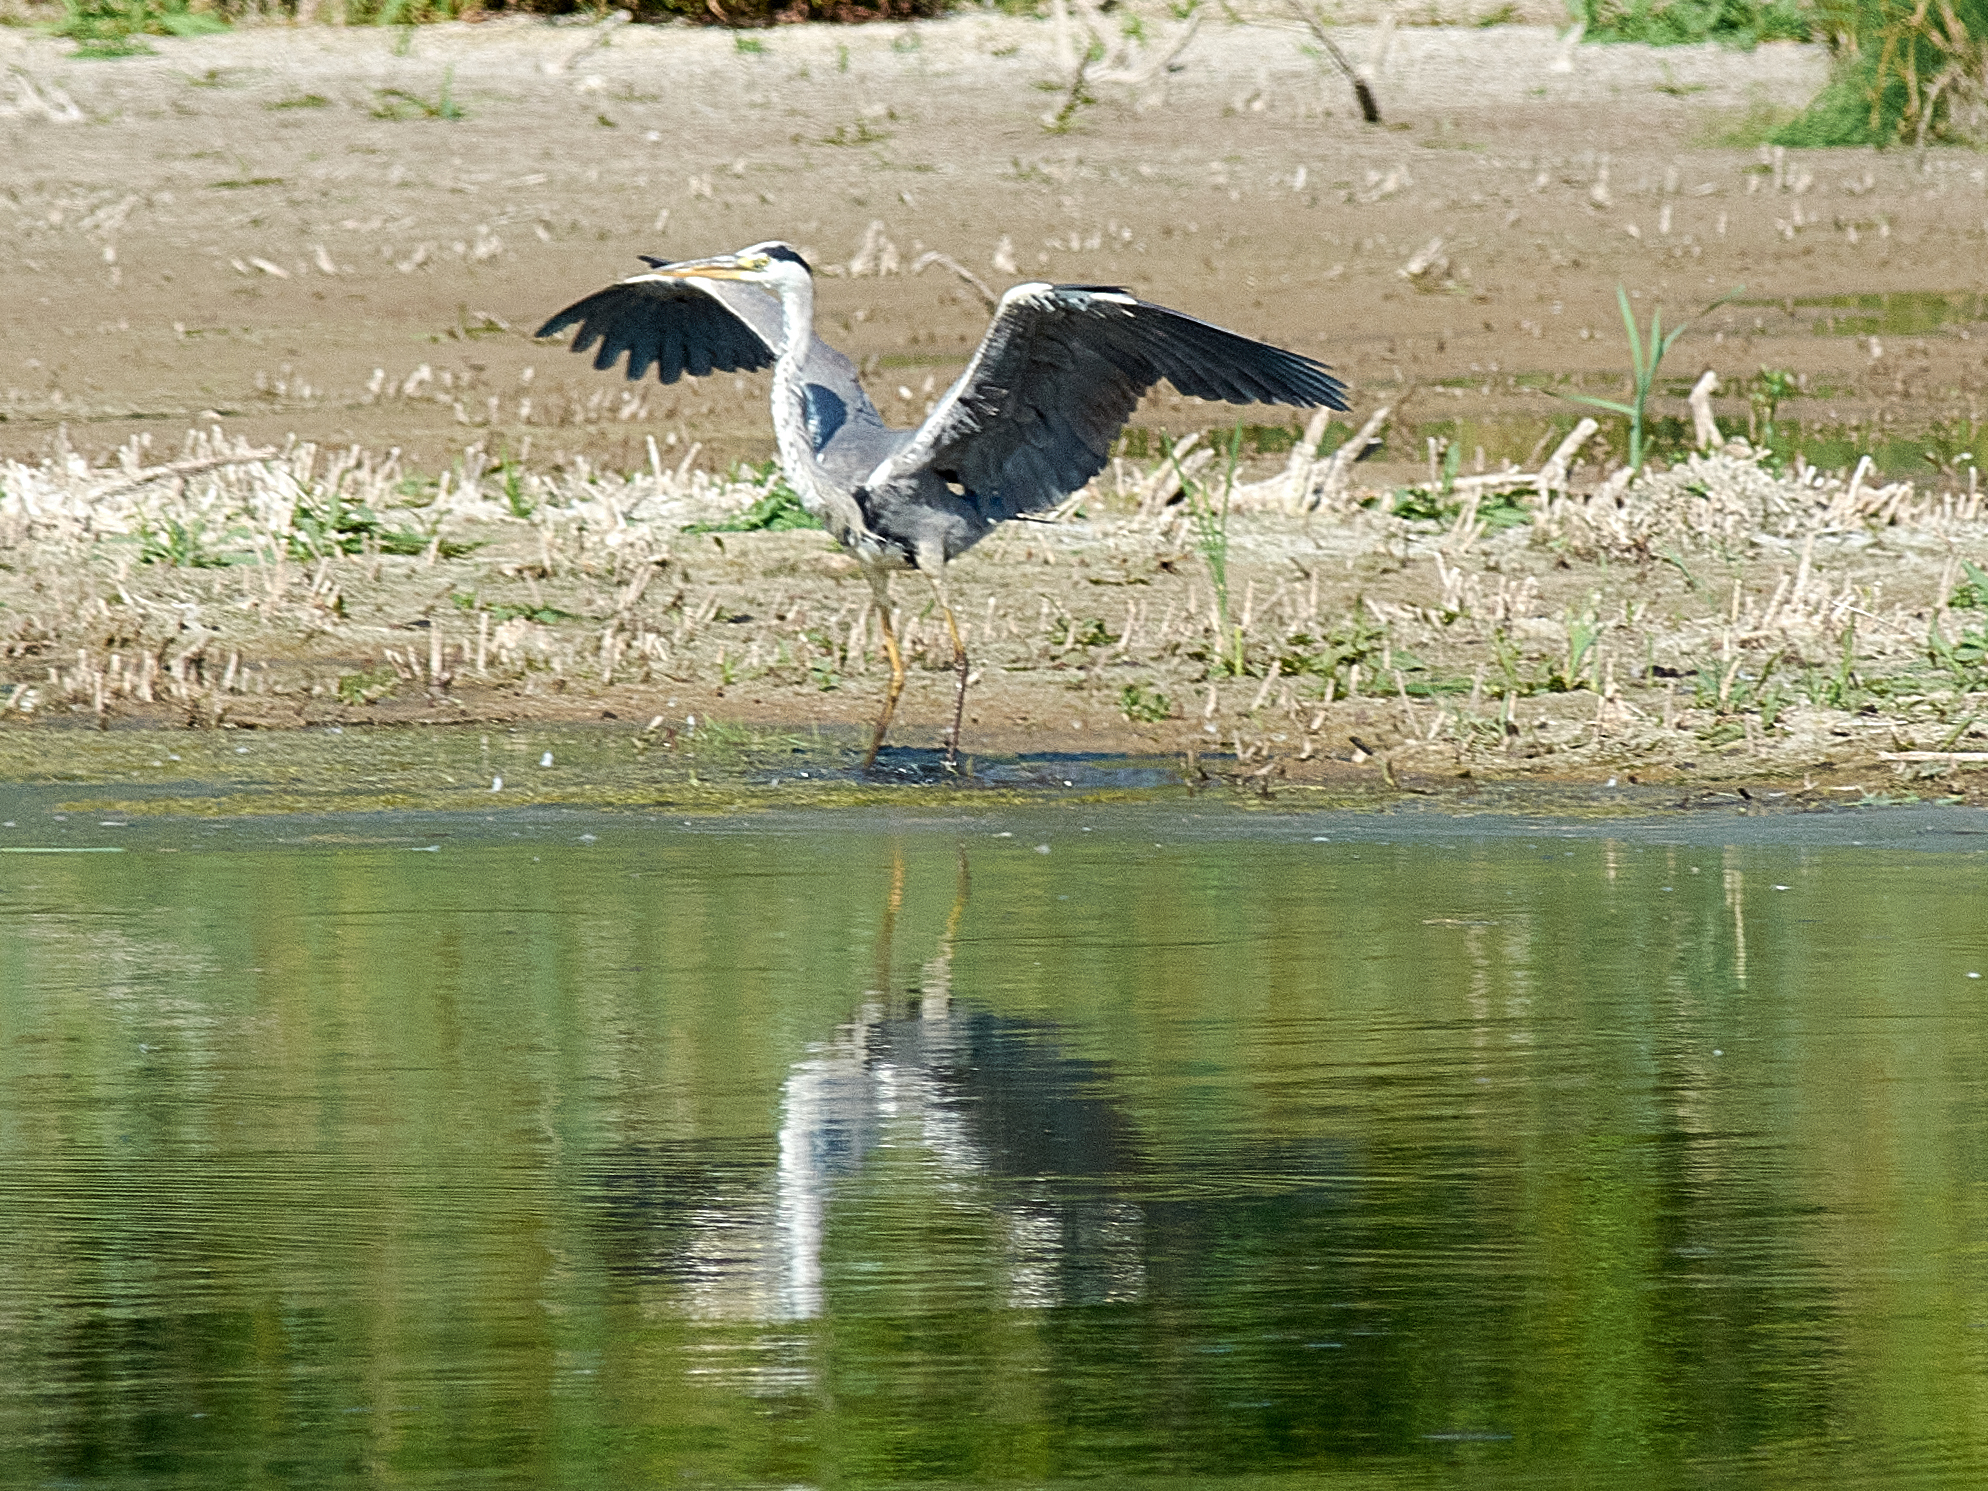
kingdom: Animalia
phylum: Chordata
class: Aves
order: Pelecaniformes
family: Ardeidae
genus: Ardea
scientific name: Ardea cinerea
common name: Grey heron
